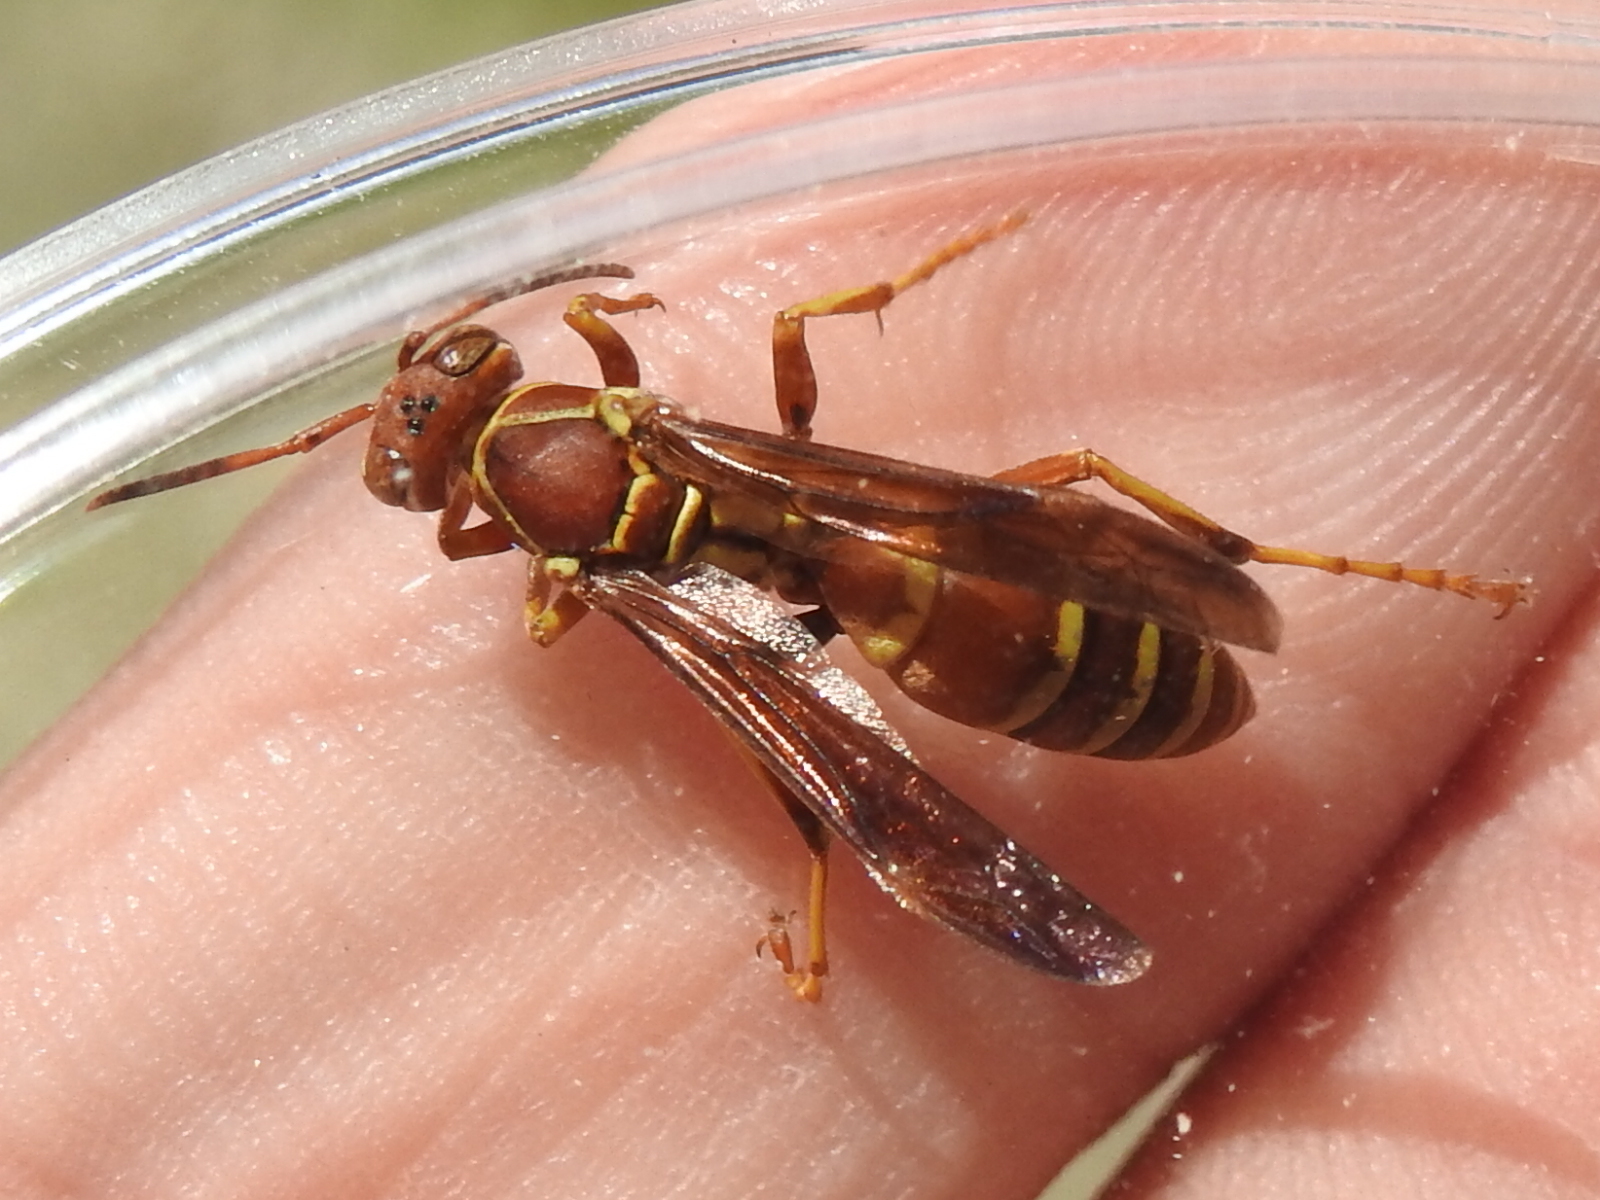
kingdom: Animalia
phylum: Arthropoda
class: Insecta
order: Hymenoptera
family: Eumenidae
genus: Polistes
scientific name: Polistes dorsalis
